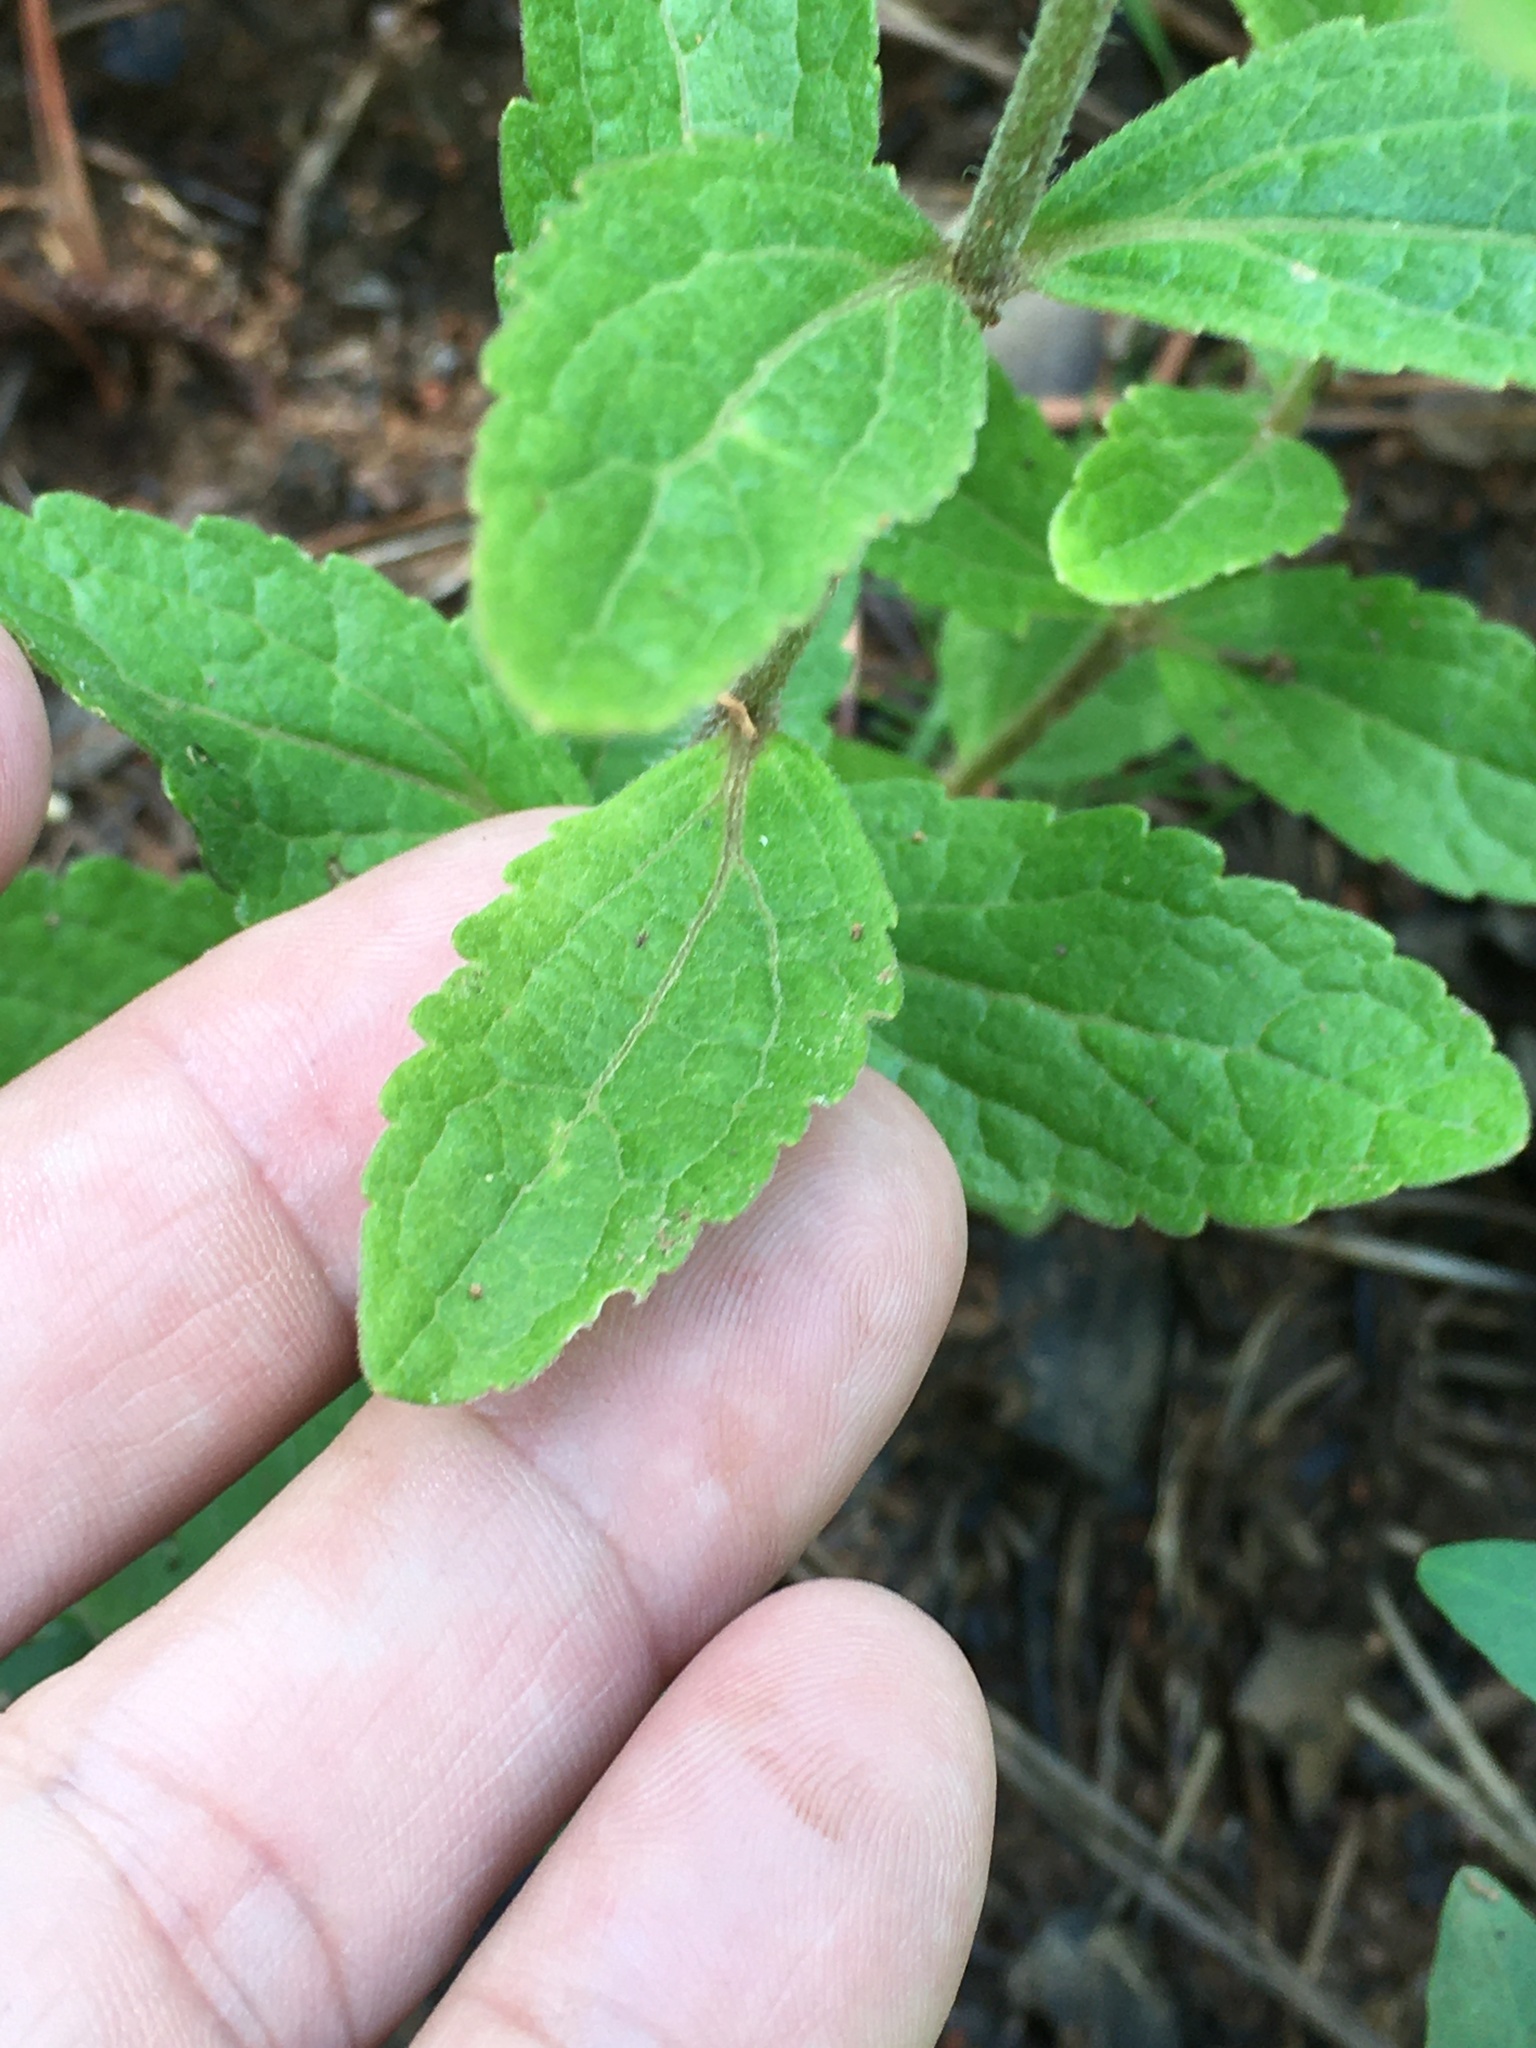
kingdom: Plantae
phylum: Tracheophyta
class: Magnoliopsida
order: Asterales
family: Asteraceae
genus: Eupatorium
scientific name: Eupatorium album
